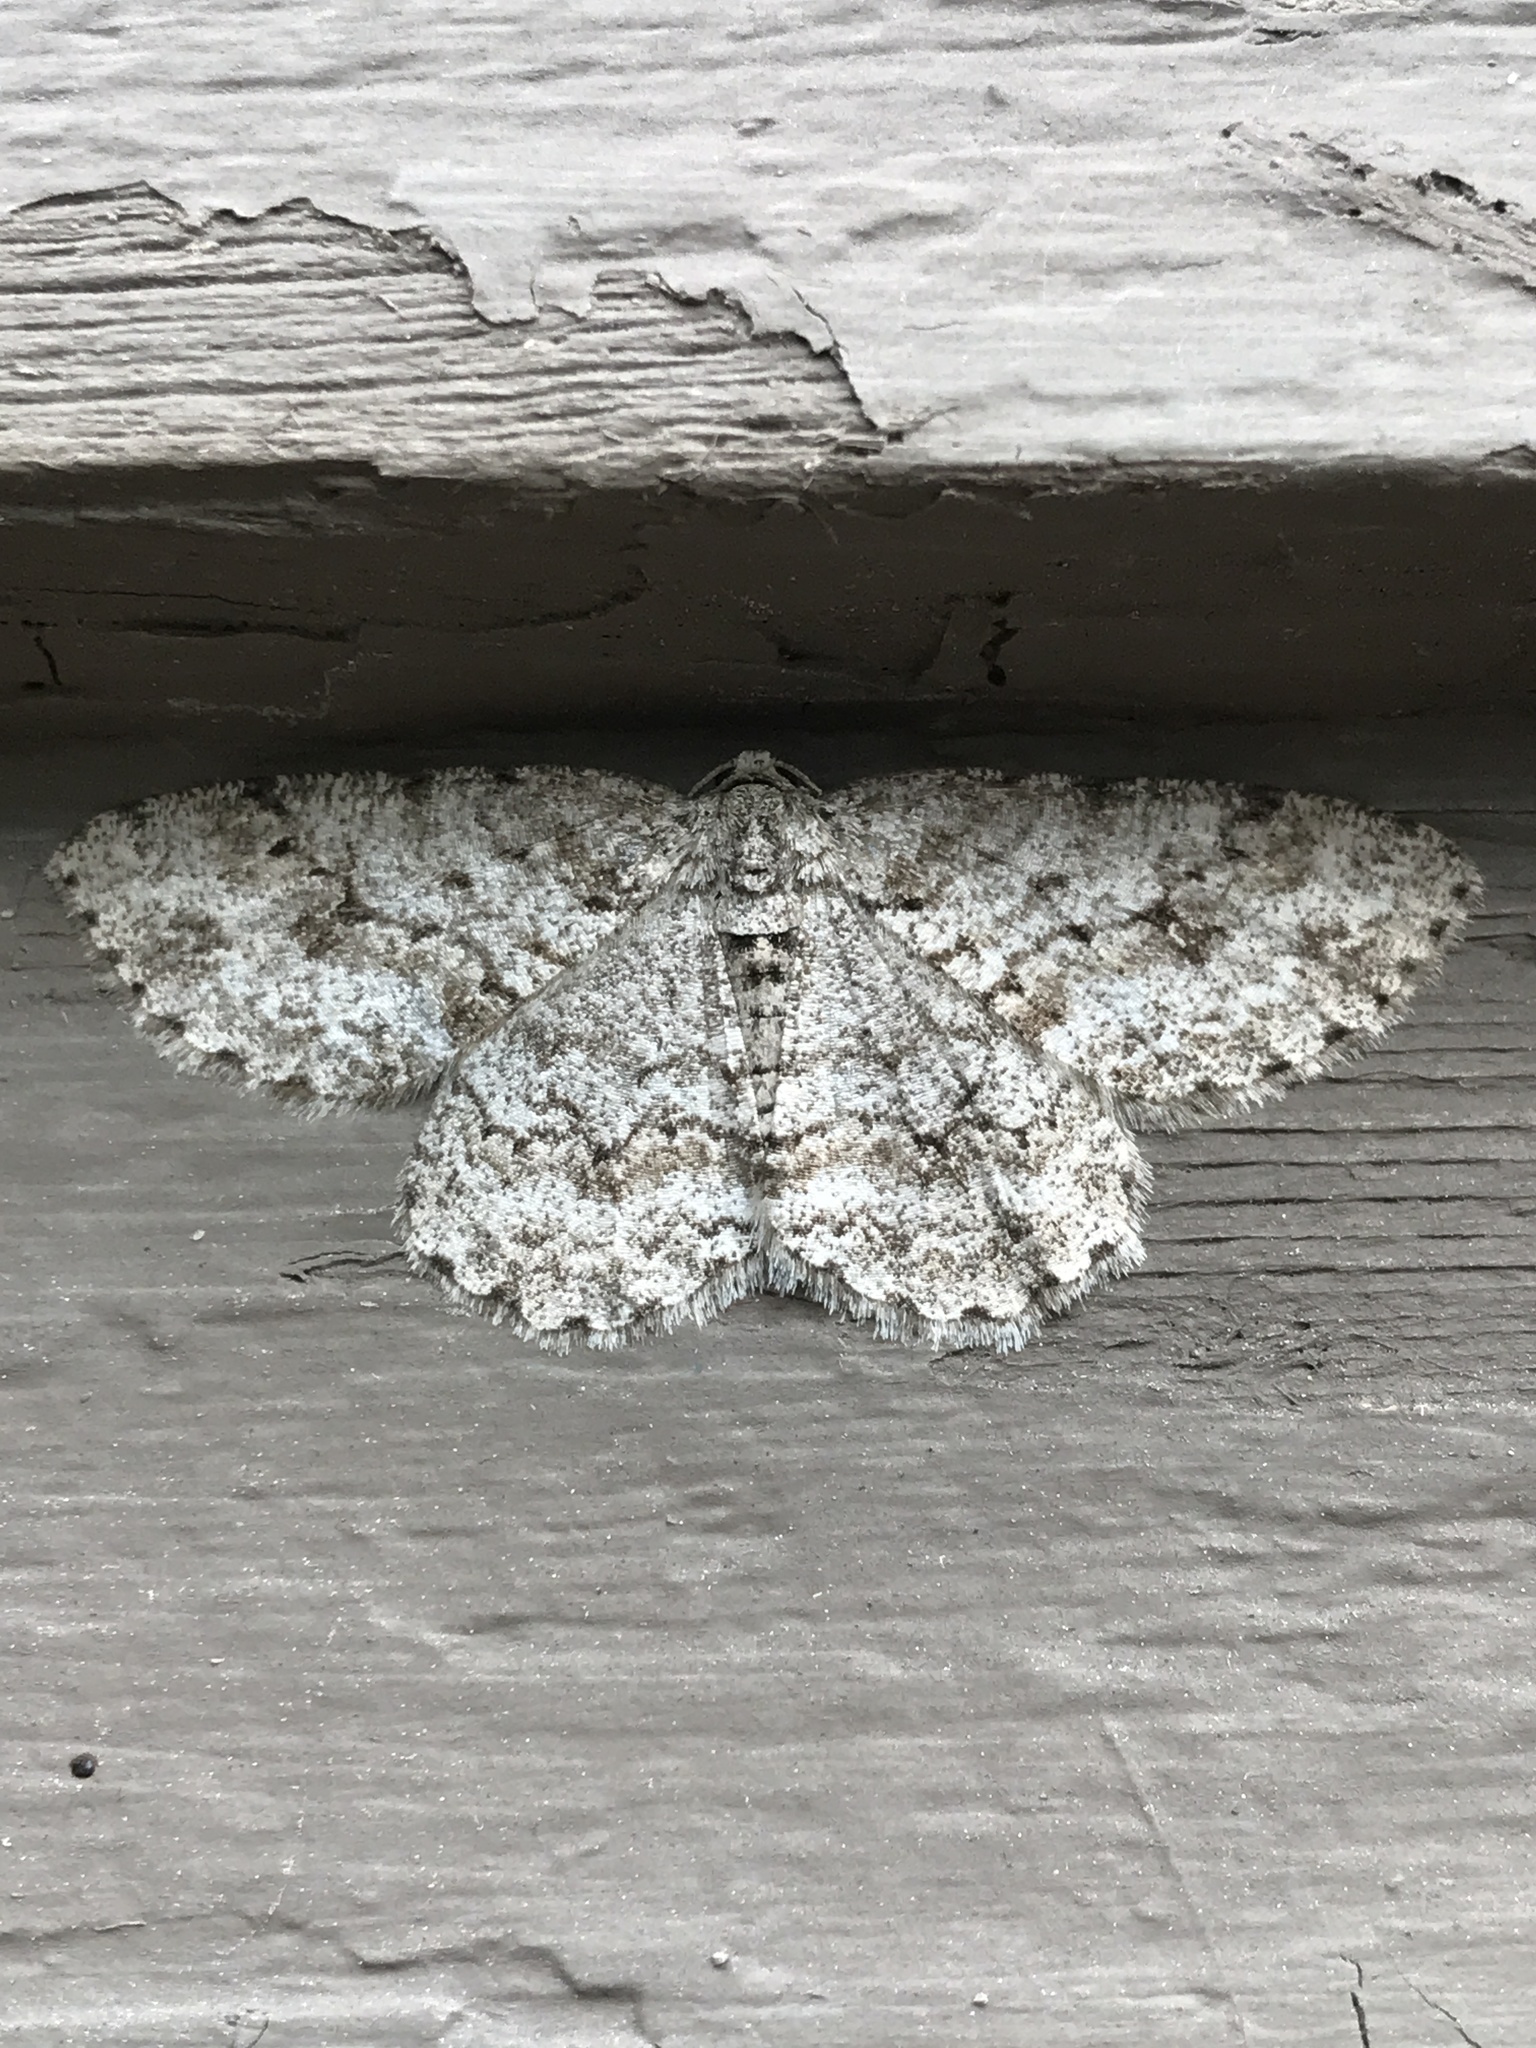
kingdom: Animalia
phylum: Arthropoda
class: Insecta
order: Lepidoptera
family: Geometridae
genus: Ectropis
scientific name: Ectropis crepuscularia
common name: Engrailed
